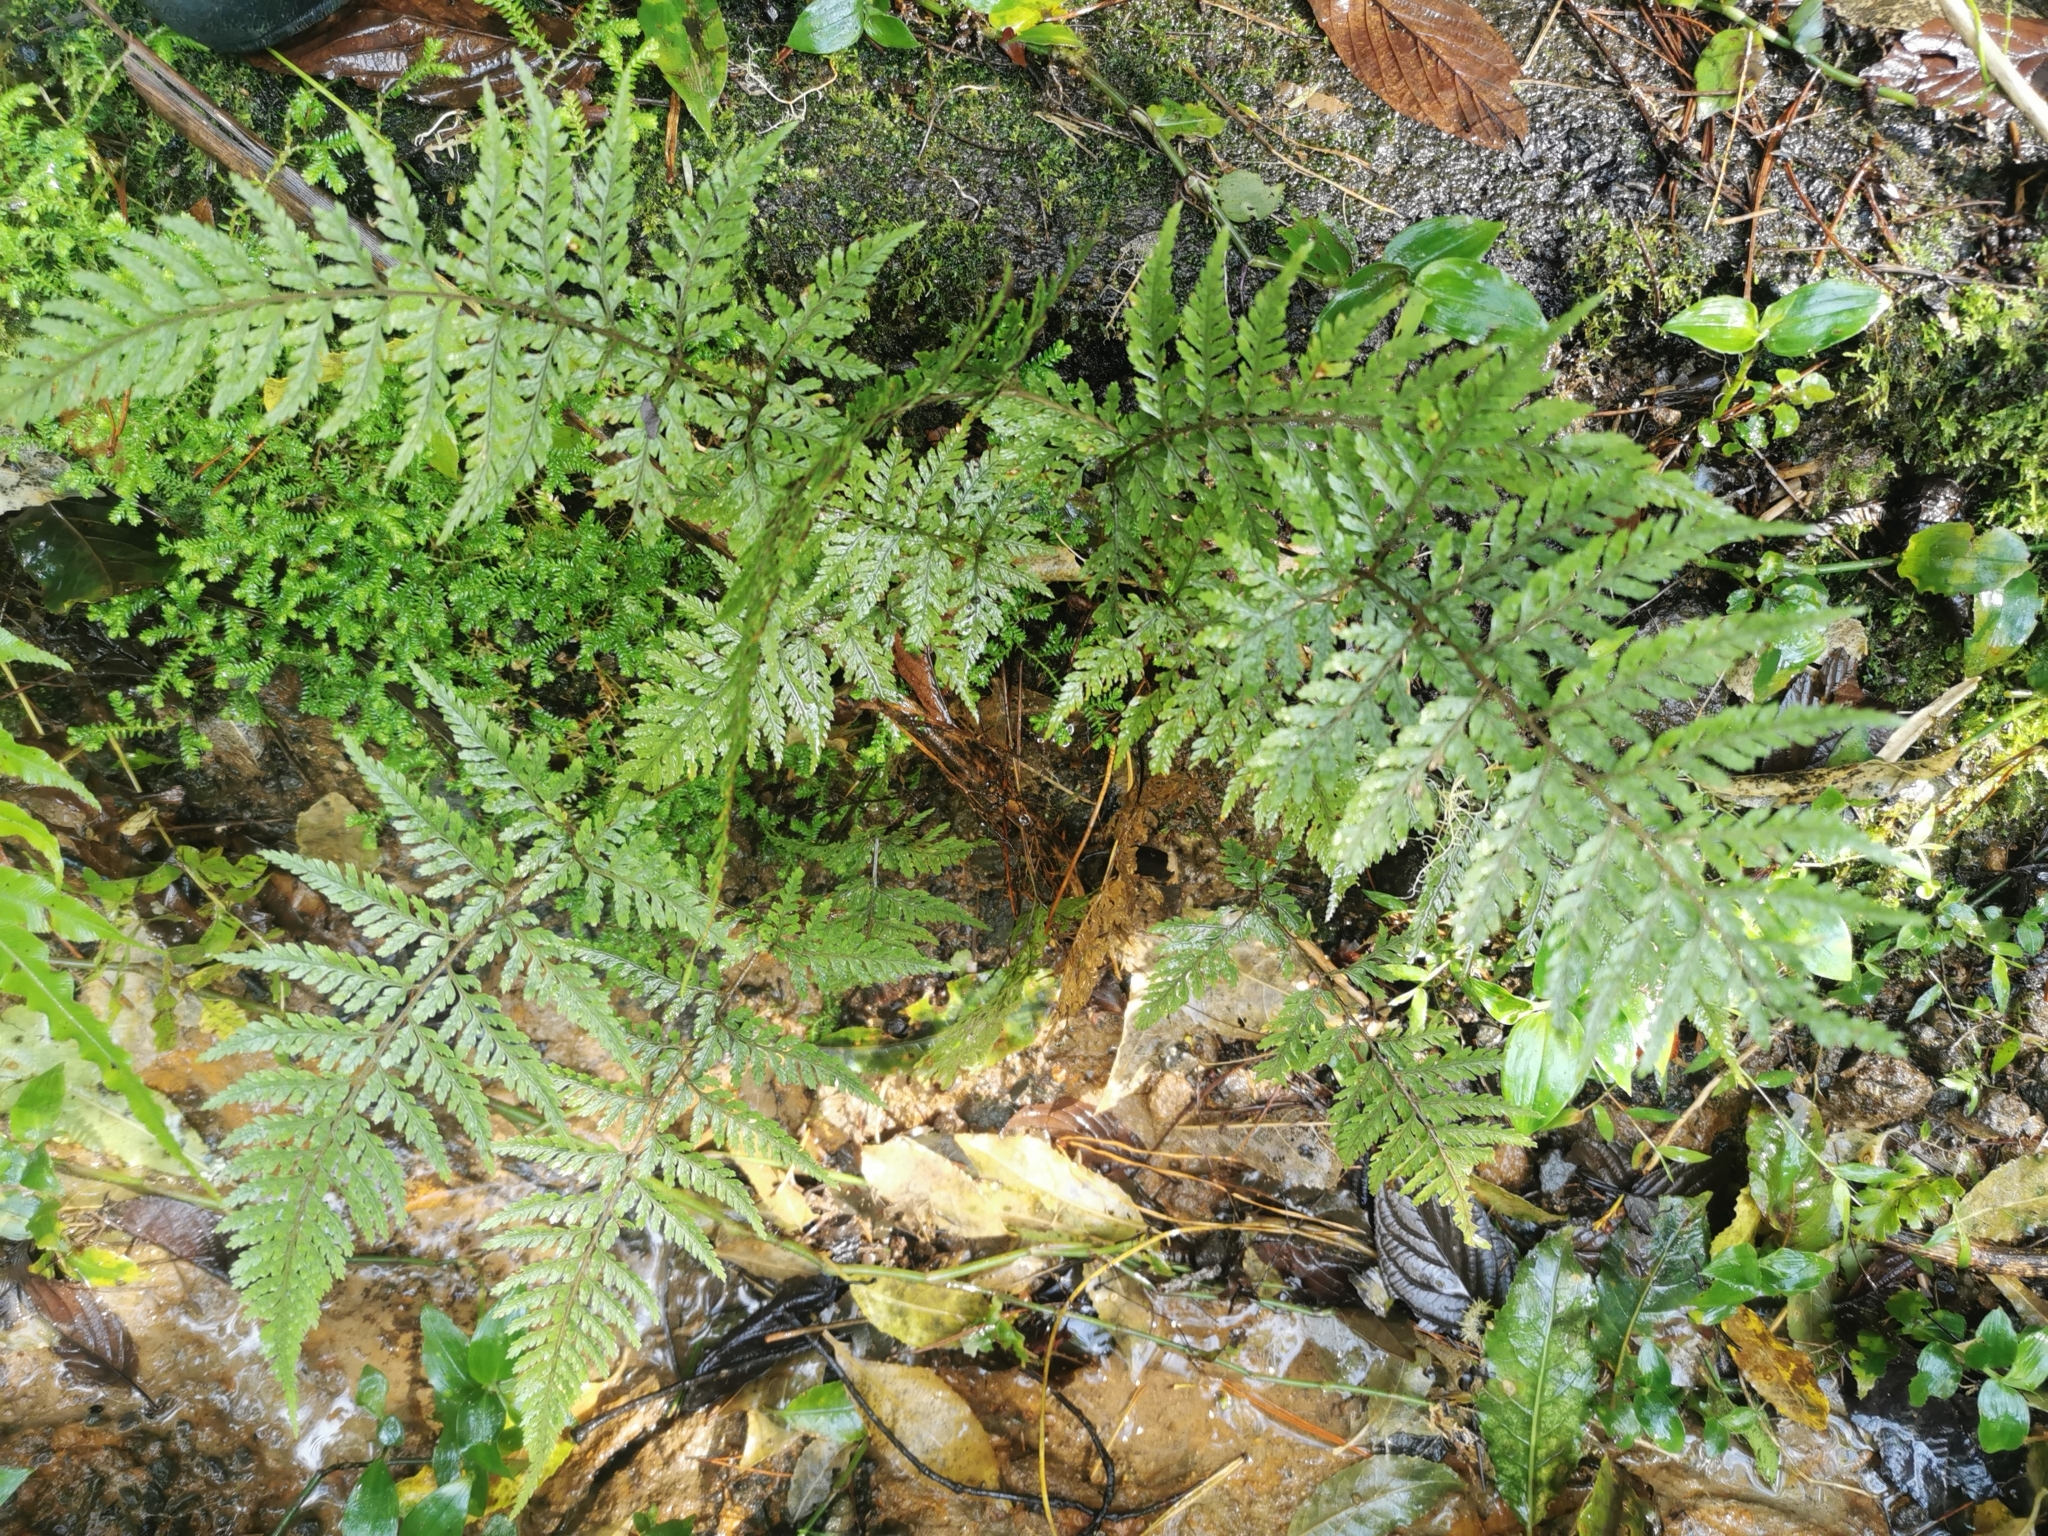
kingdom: Plantae
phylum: Tracheophyta
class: Polypodiopsida
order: Polypodiales
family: Dryopteridaceae
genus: Parapolystichum
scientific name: Parapolystichum glabellum
